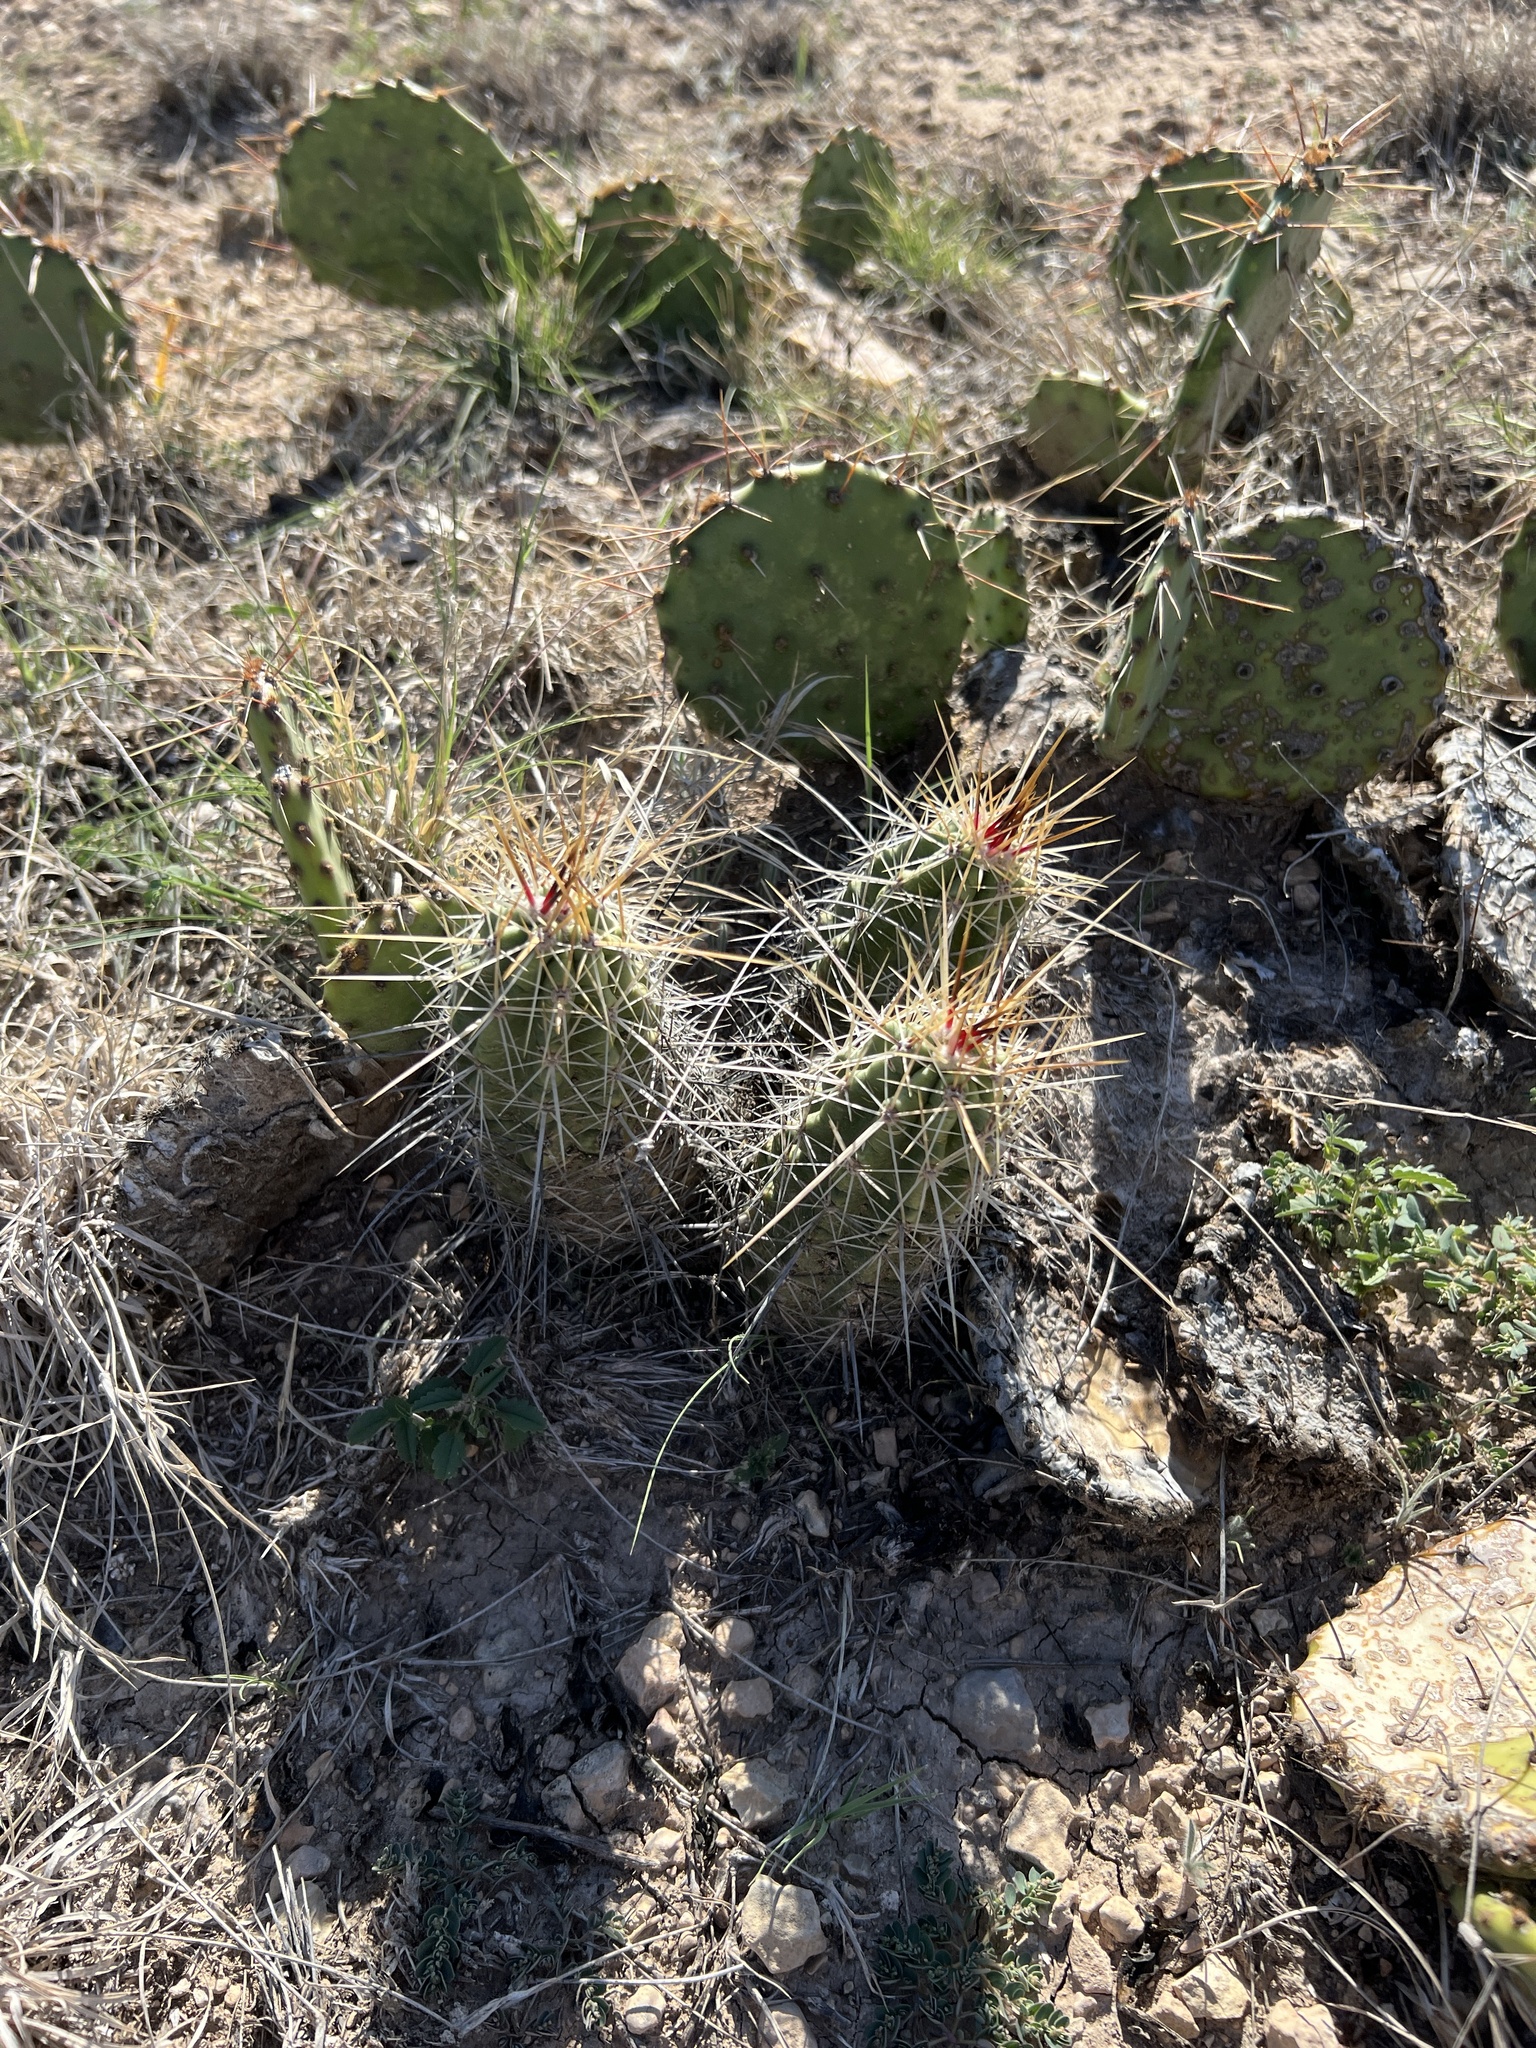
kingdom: Plantae
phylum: Tracheophyta
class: Magnoliopsida
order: Caryophyllales
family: Cactaceae
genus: Echinocereus
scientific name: Echinocereus enneacanthus
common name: Pitaya
